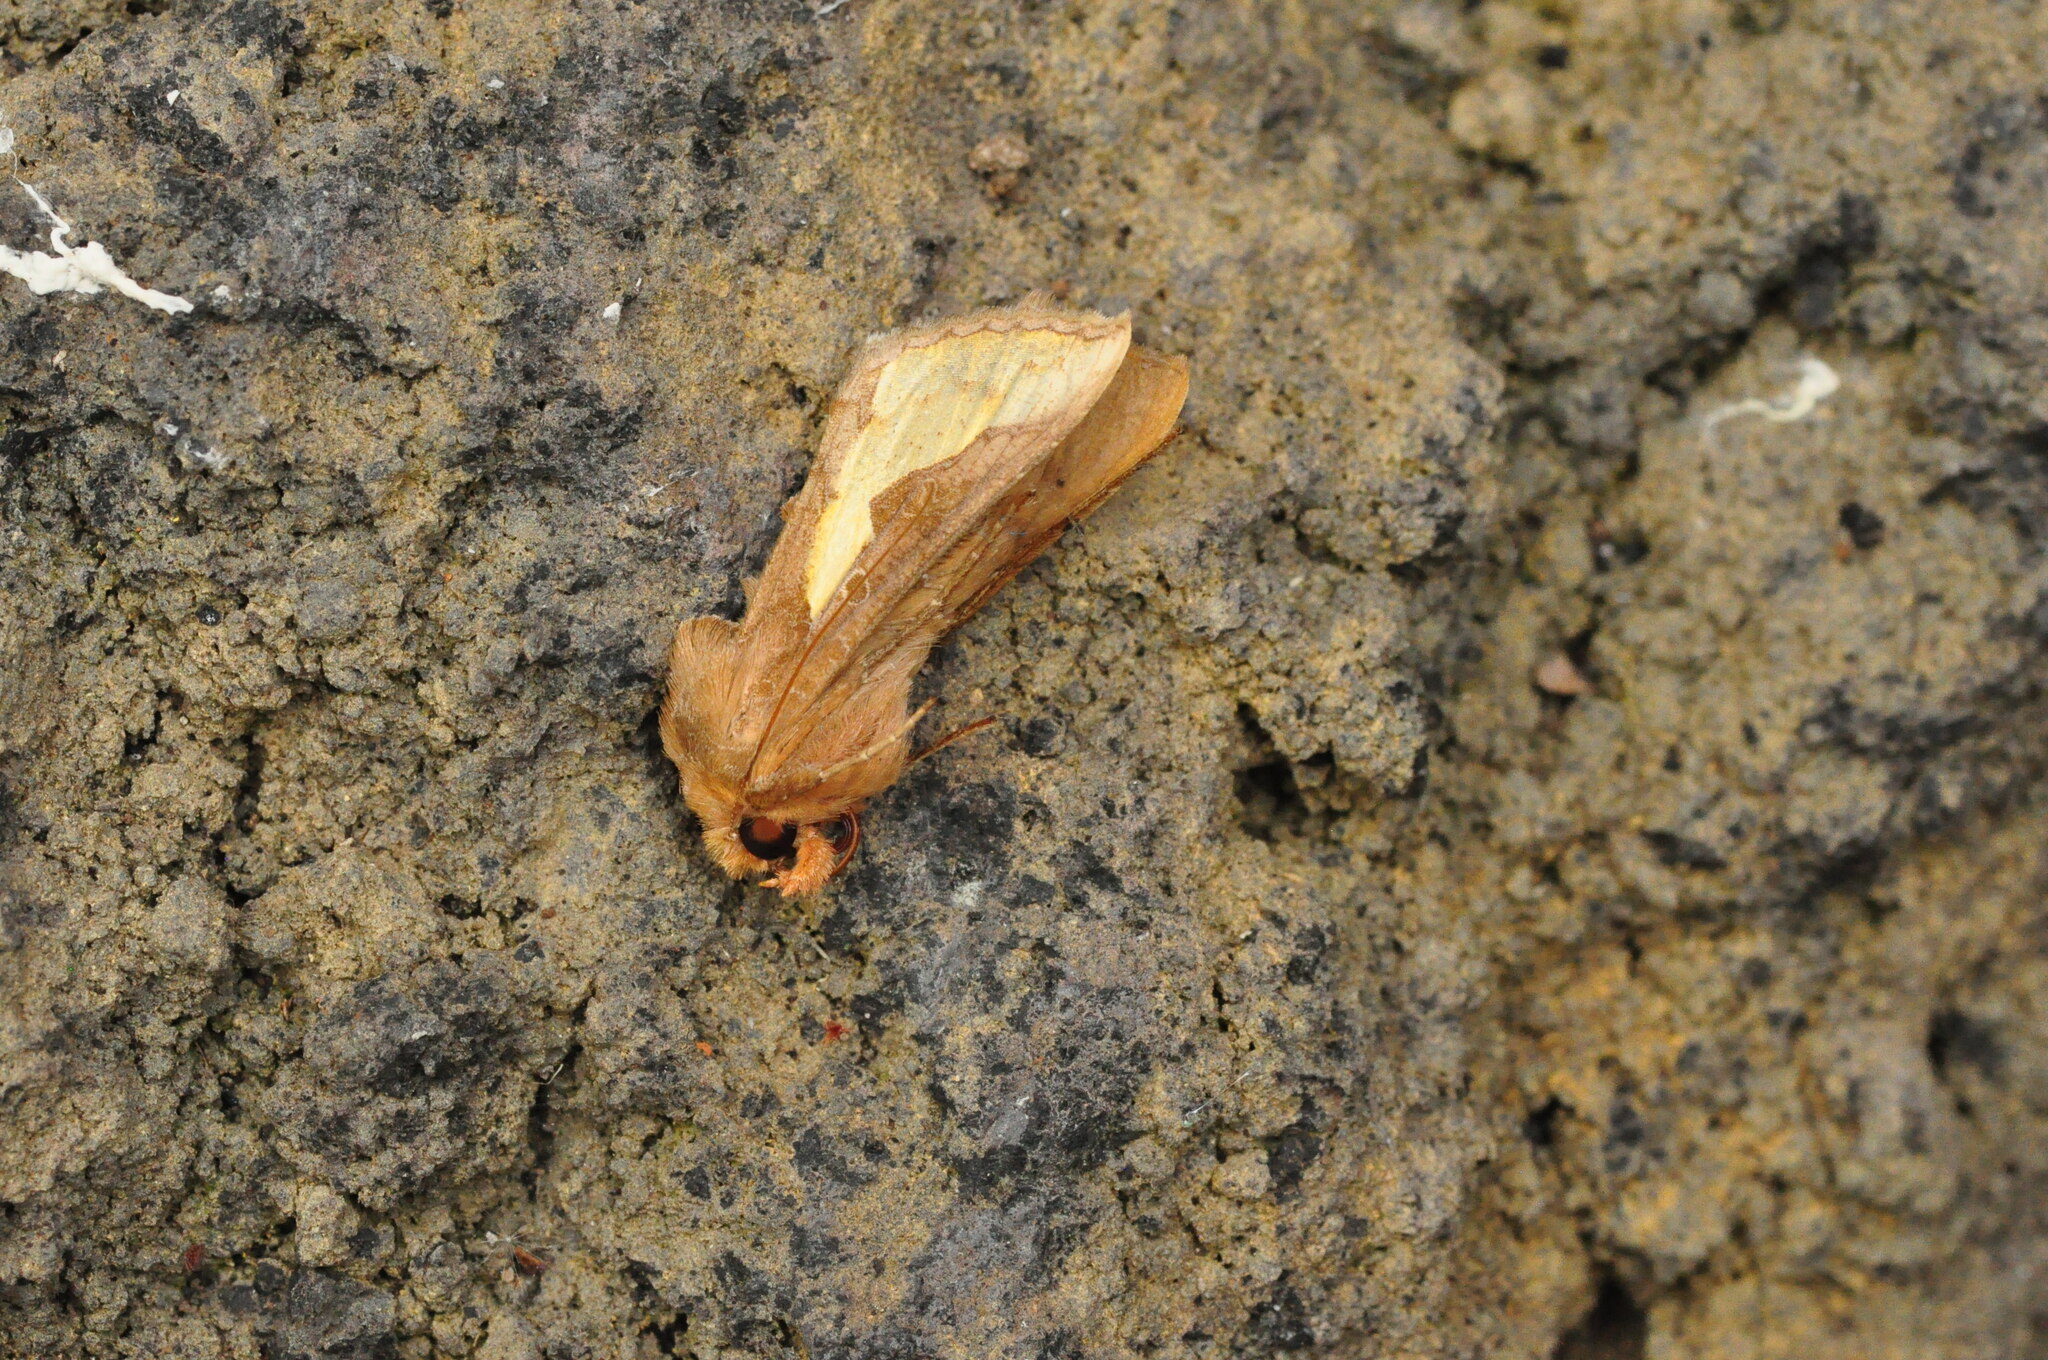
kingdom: Animalia
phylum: Arthropoda
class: Insecta
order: Lepidoptera
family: Noctuidae
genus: Thysanoplusia
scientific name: Thysanoplusia orichalcea
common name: Slender burnished brass, golden plusia
